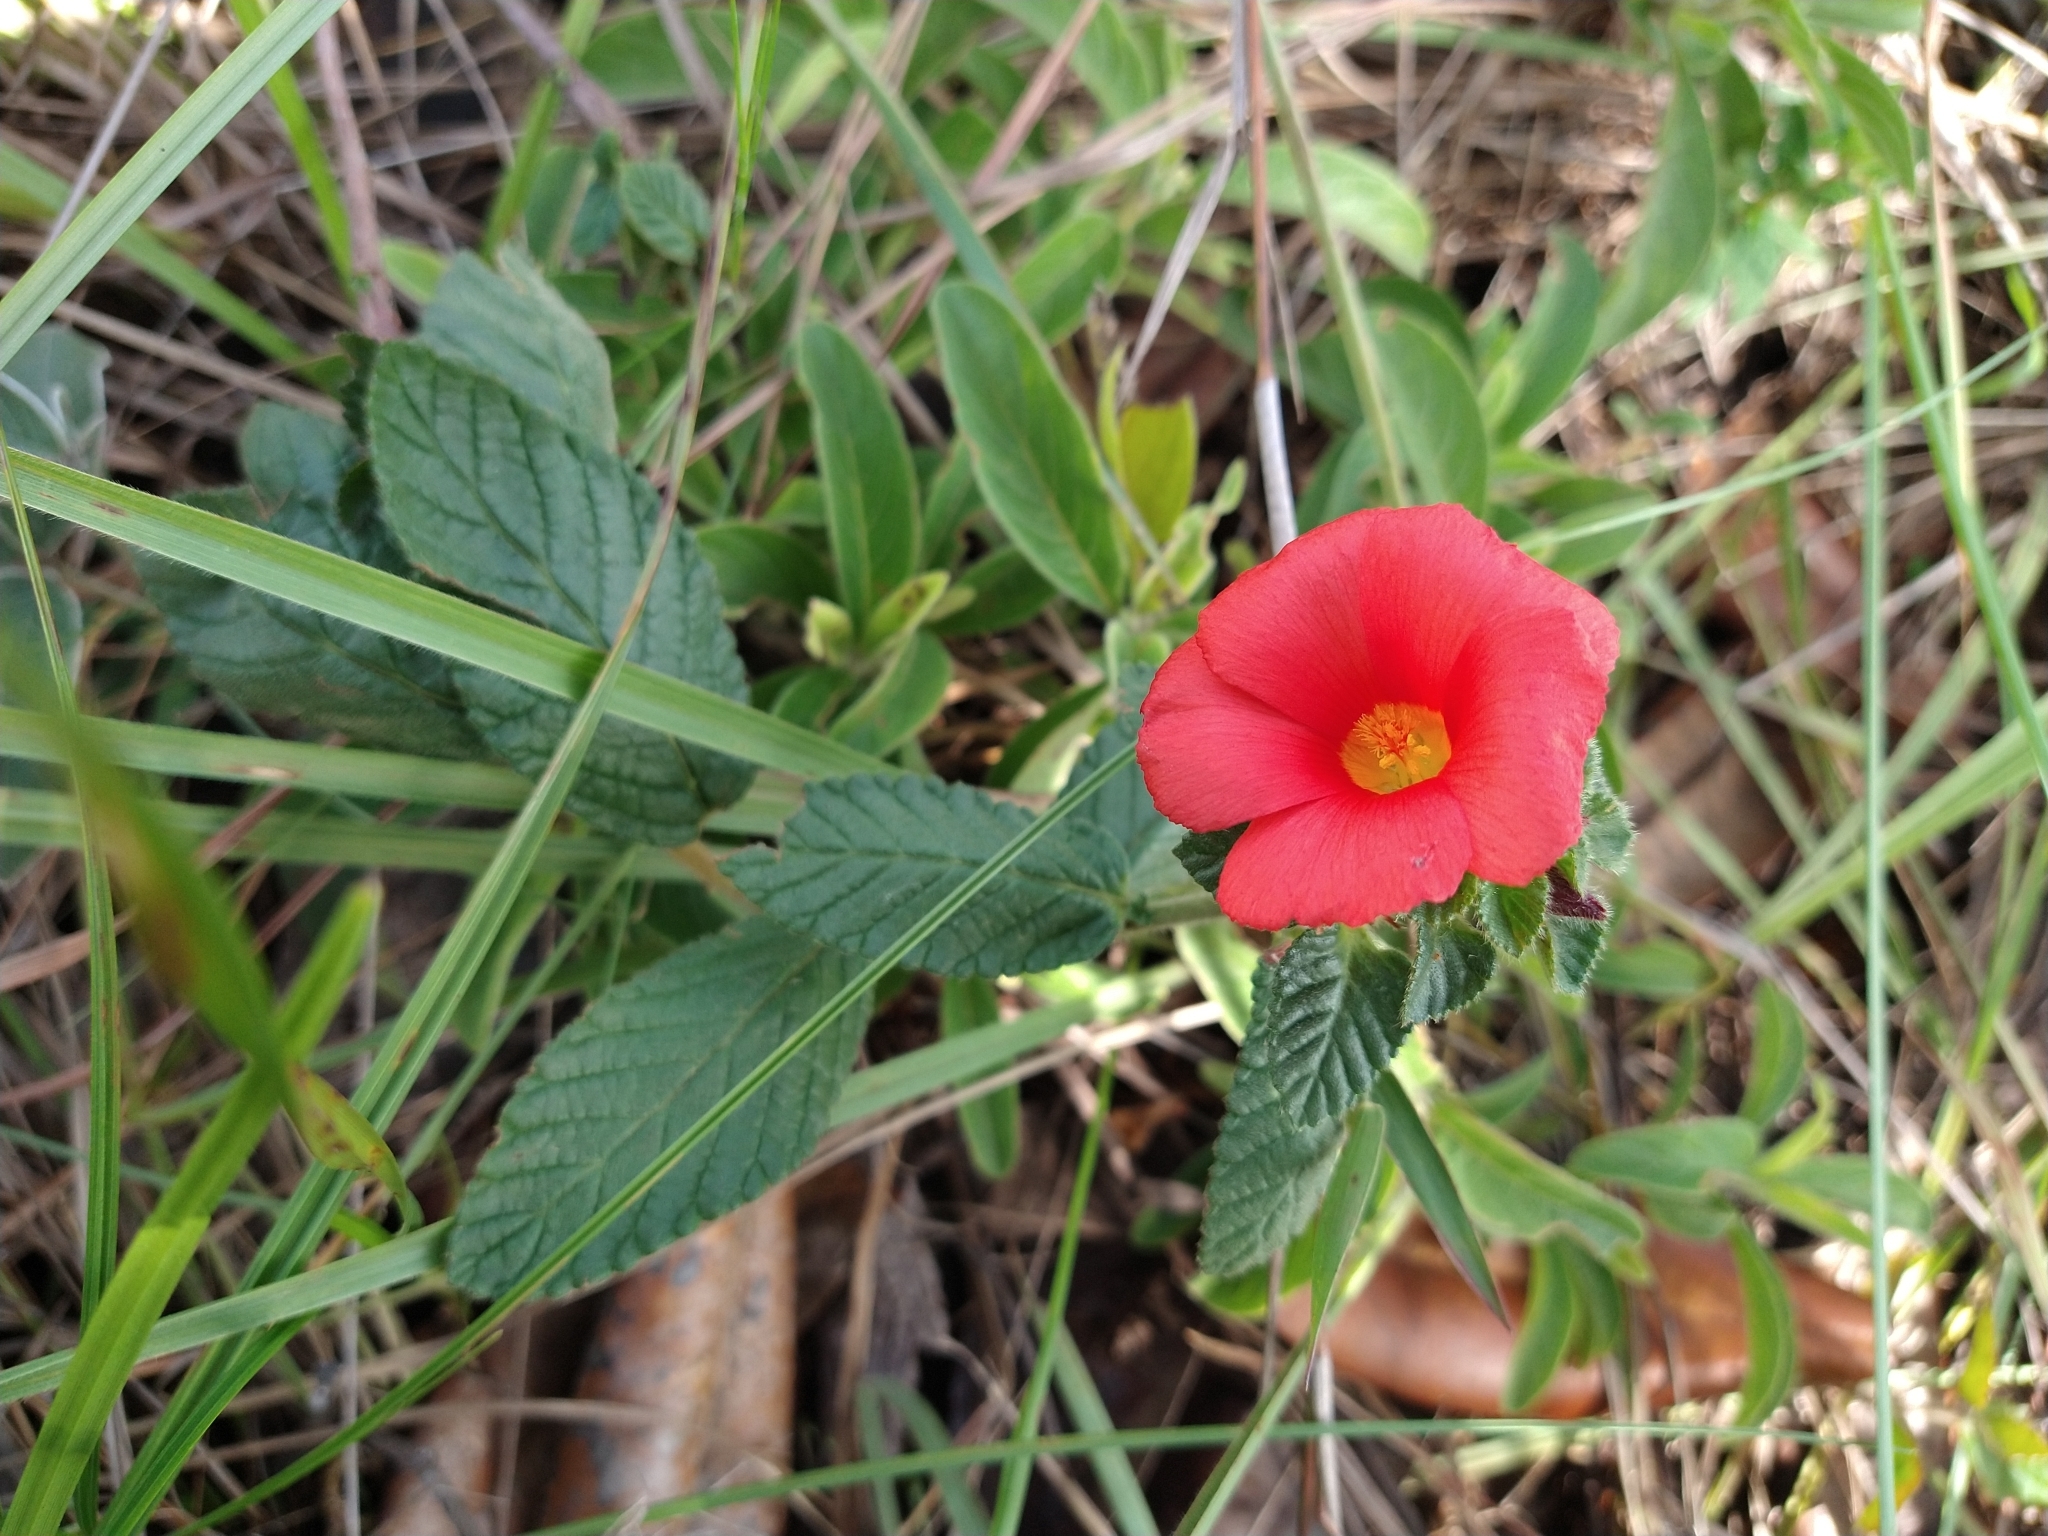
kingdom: Plantae
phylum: Tracheophyta
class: Magnoliopsida
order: Malpighiales
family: Turneraceae
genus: Turnera
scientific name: Turnera longiflora
